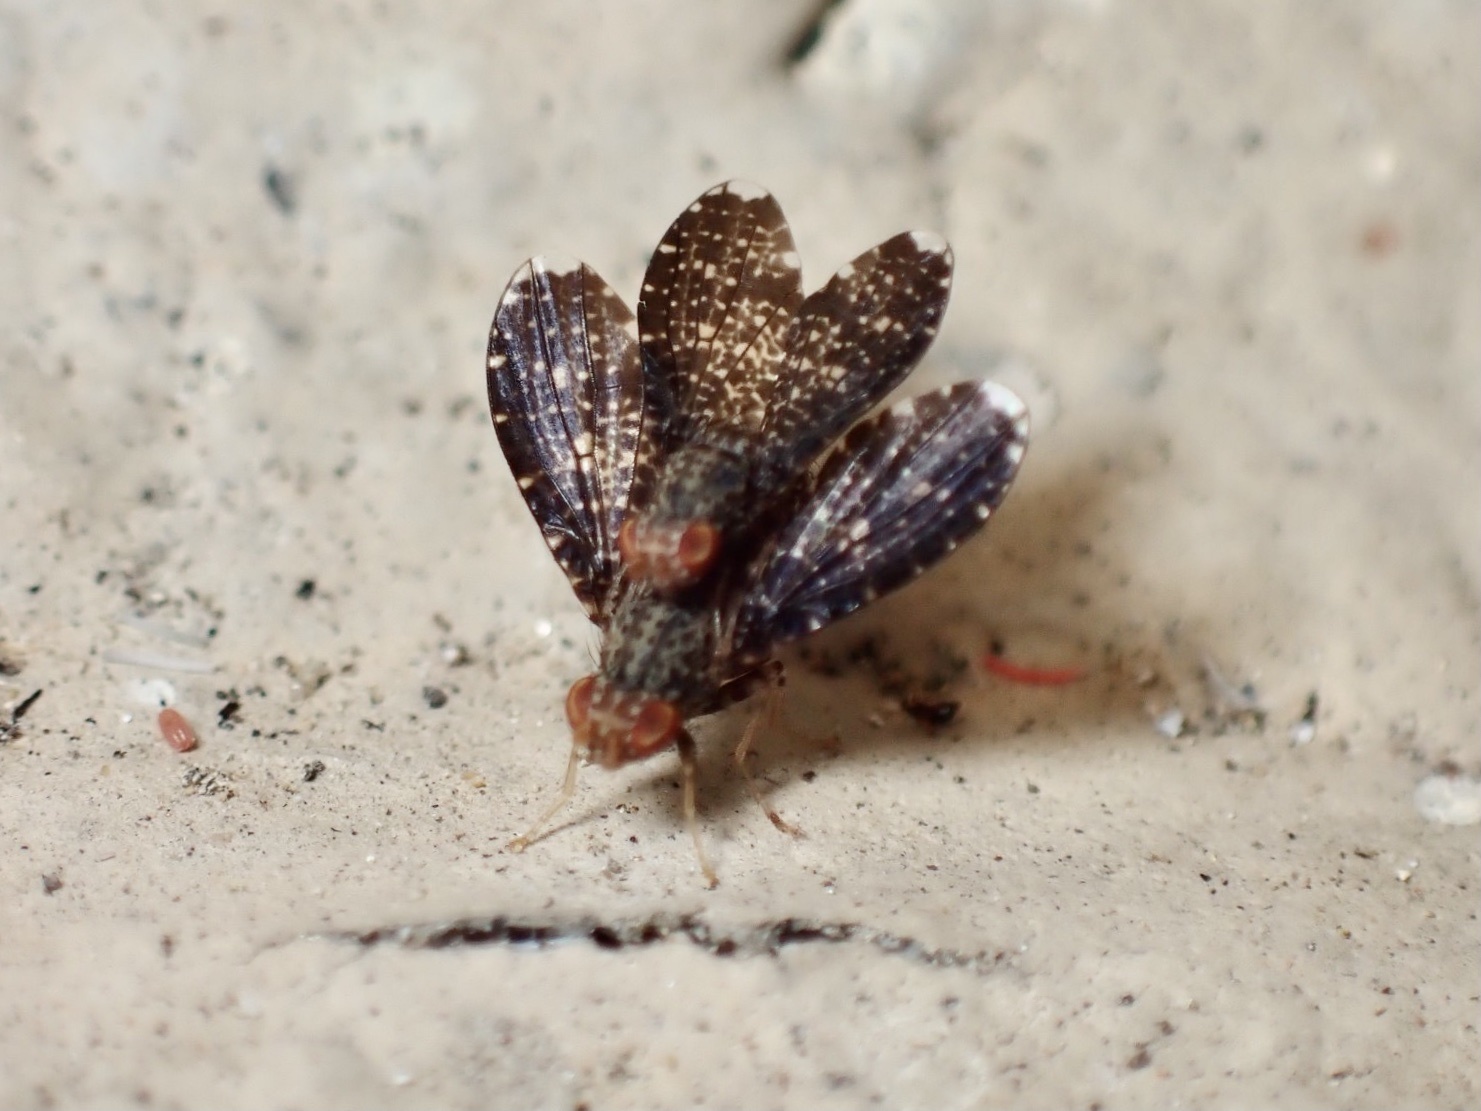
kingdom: Animalia
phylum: Arthropoda
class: Insecta
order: Diptera
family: Lauxaniidae
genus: Trypetisoma
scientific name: Trypetisoma sticticum
